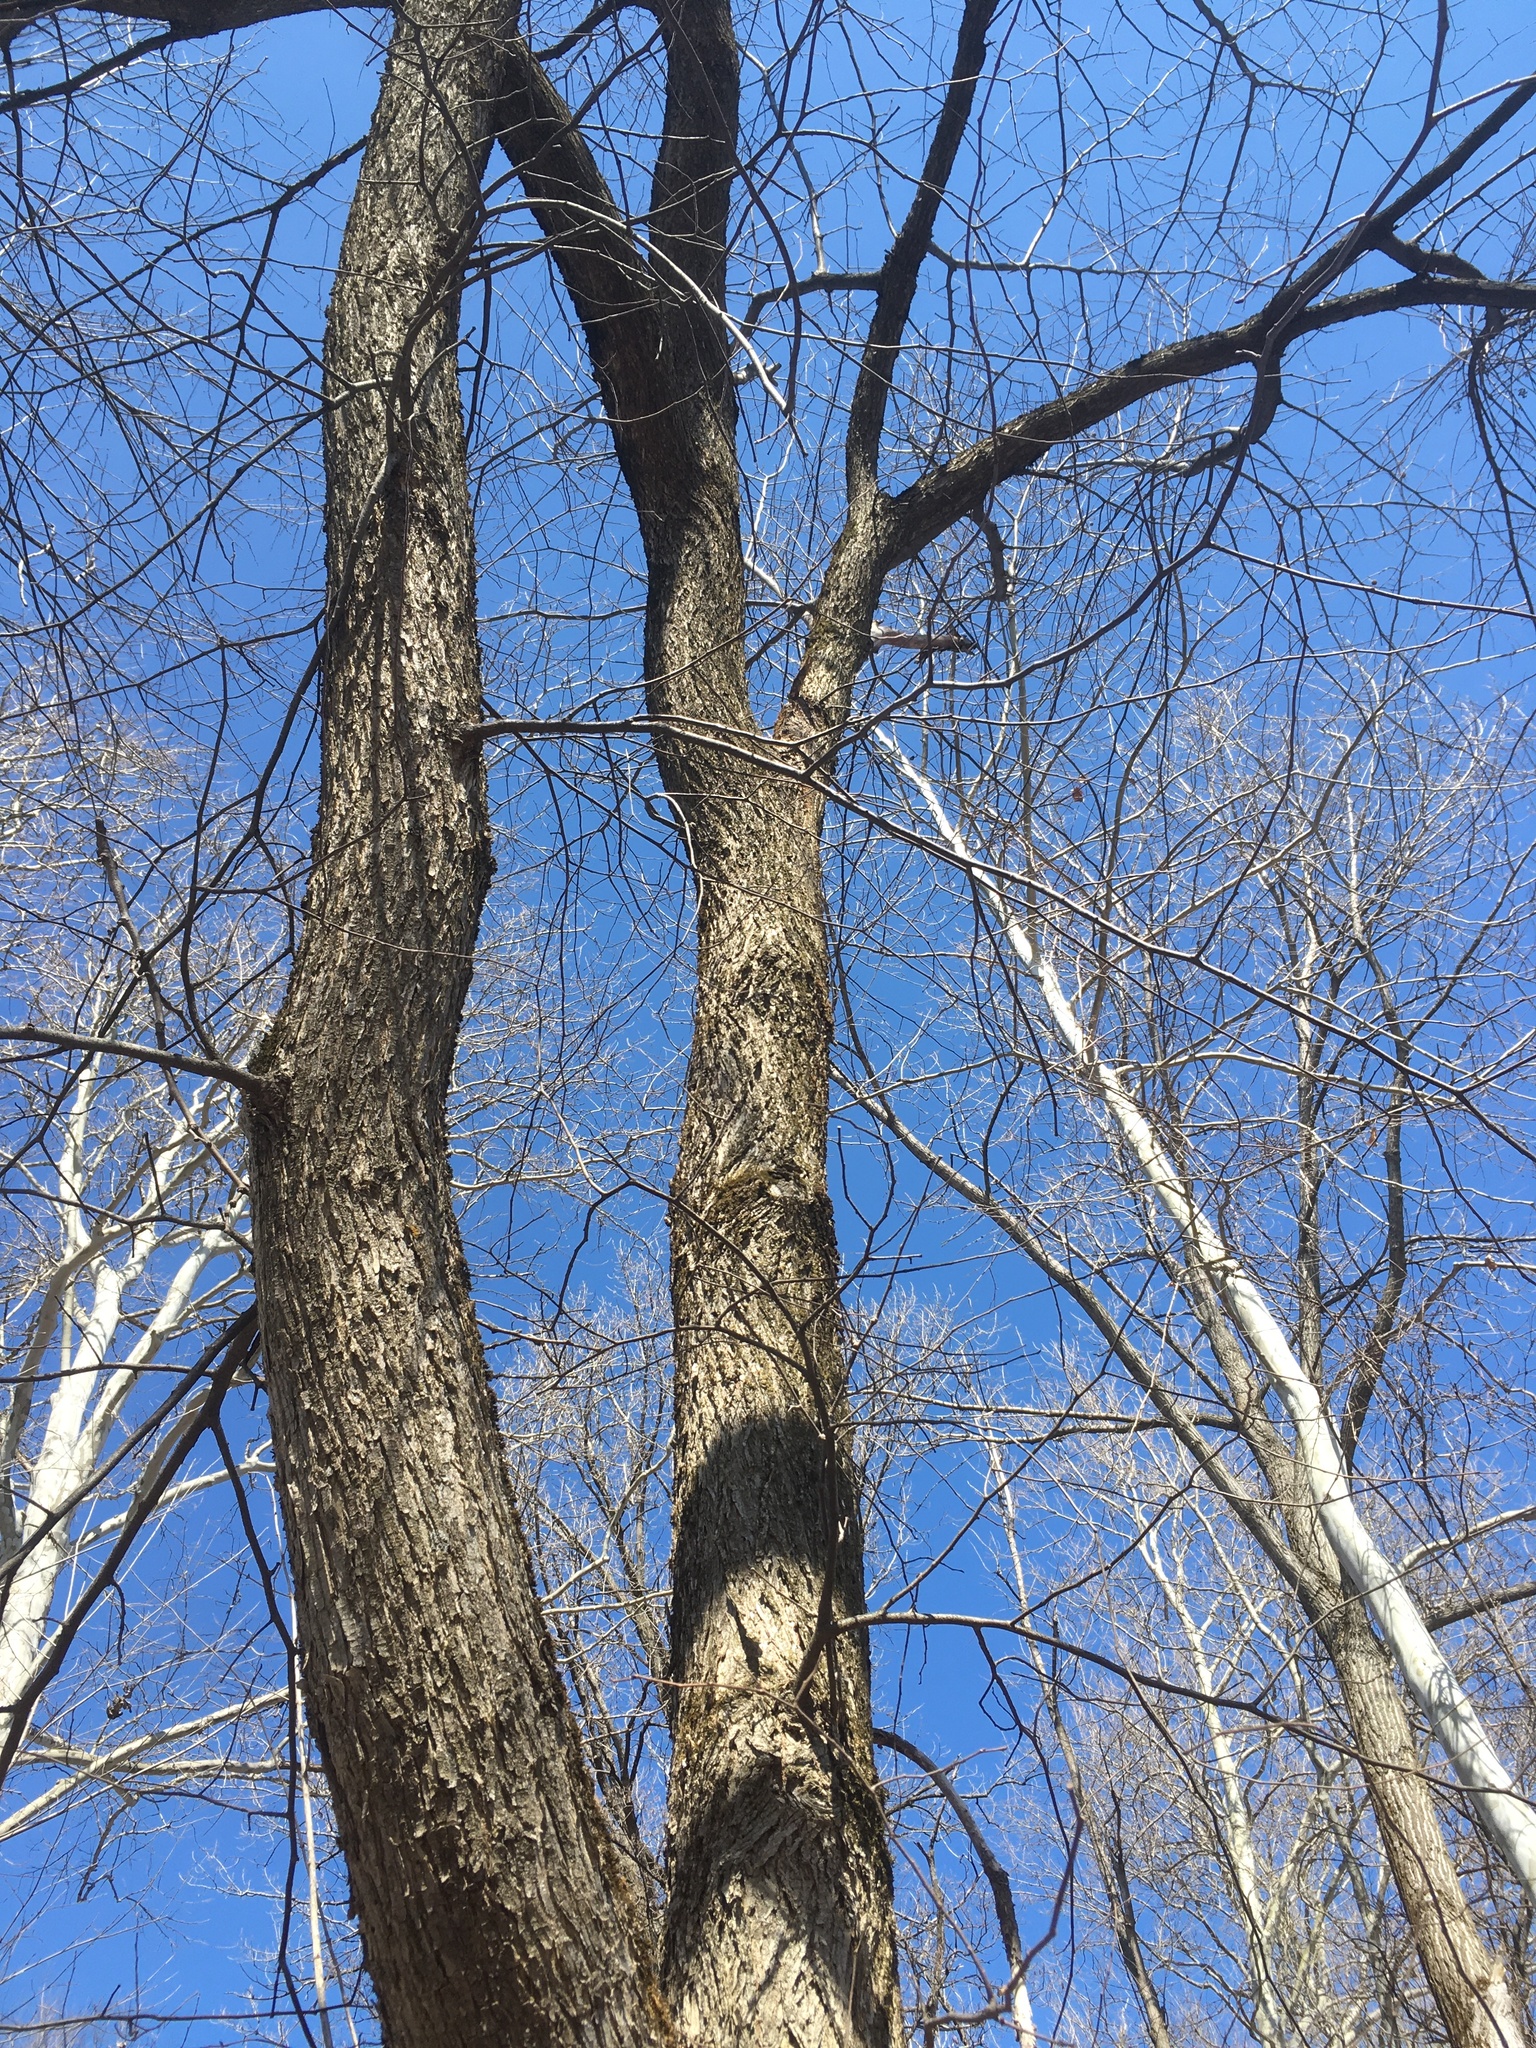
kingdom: Plantae
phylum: Tracheophyta
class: Magnoliopsida
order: Rosales
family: Ulmaceae
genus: Ulmus
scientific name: Ulmus americana
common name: American elm
